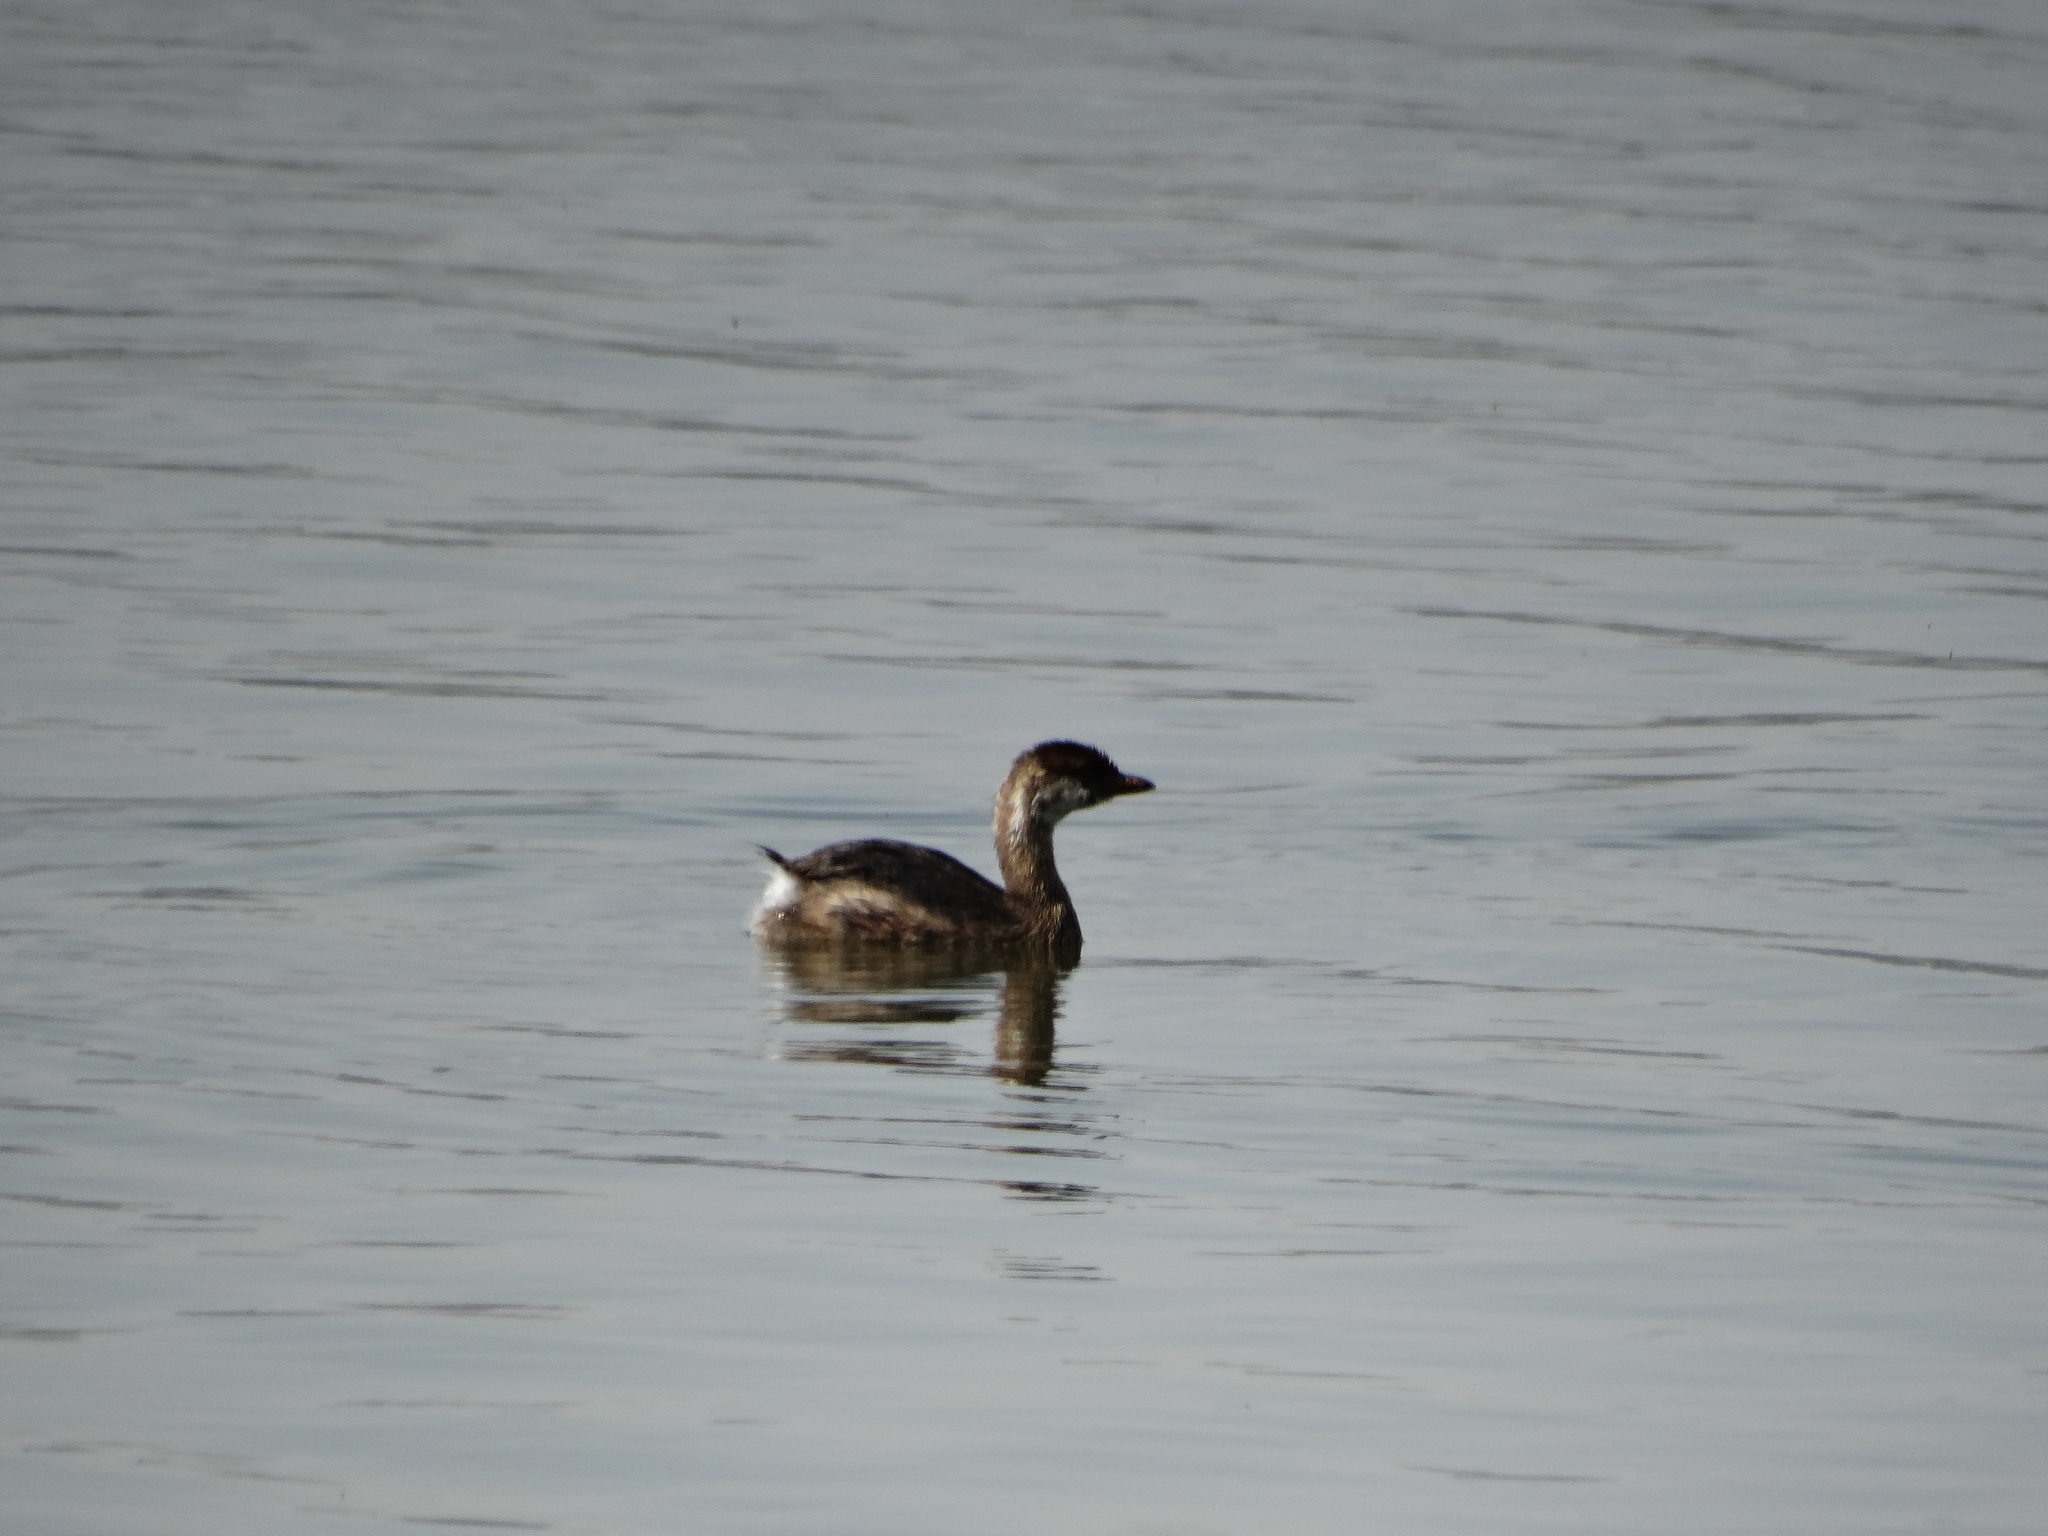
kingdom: Animalia
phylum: Chordata
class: Aves
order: Podicipediformes
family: Podicipedidae
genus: Podilymbus
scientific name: Podilymbus podiceps
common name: Pied-billed grebe
